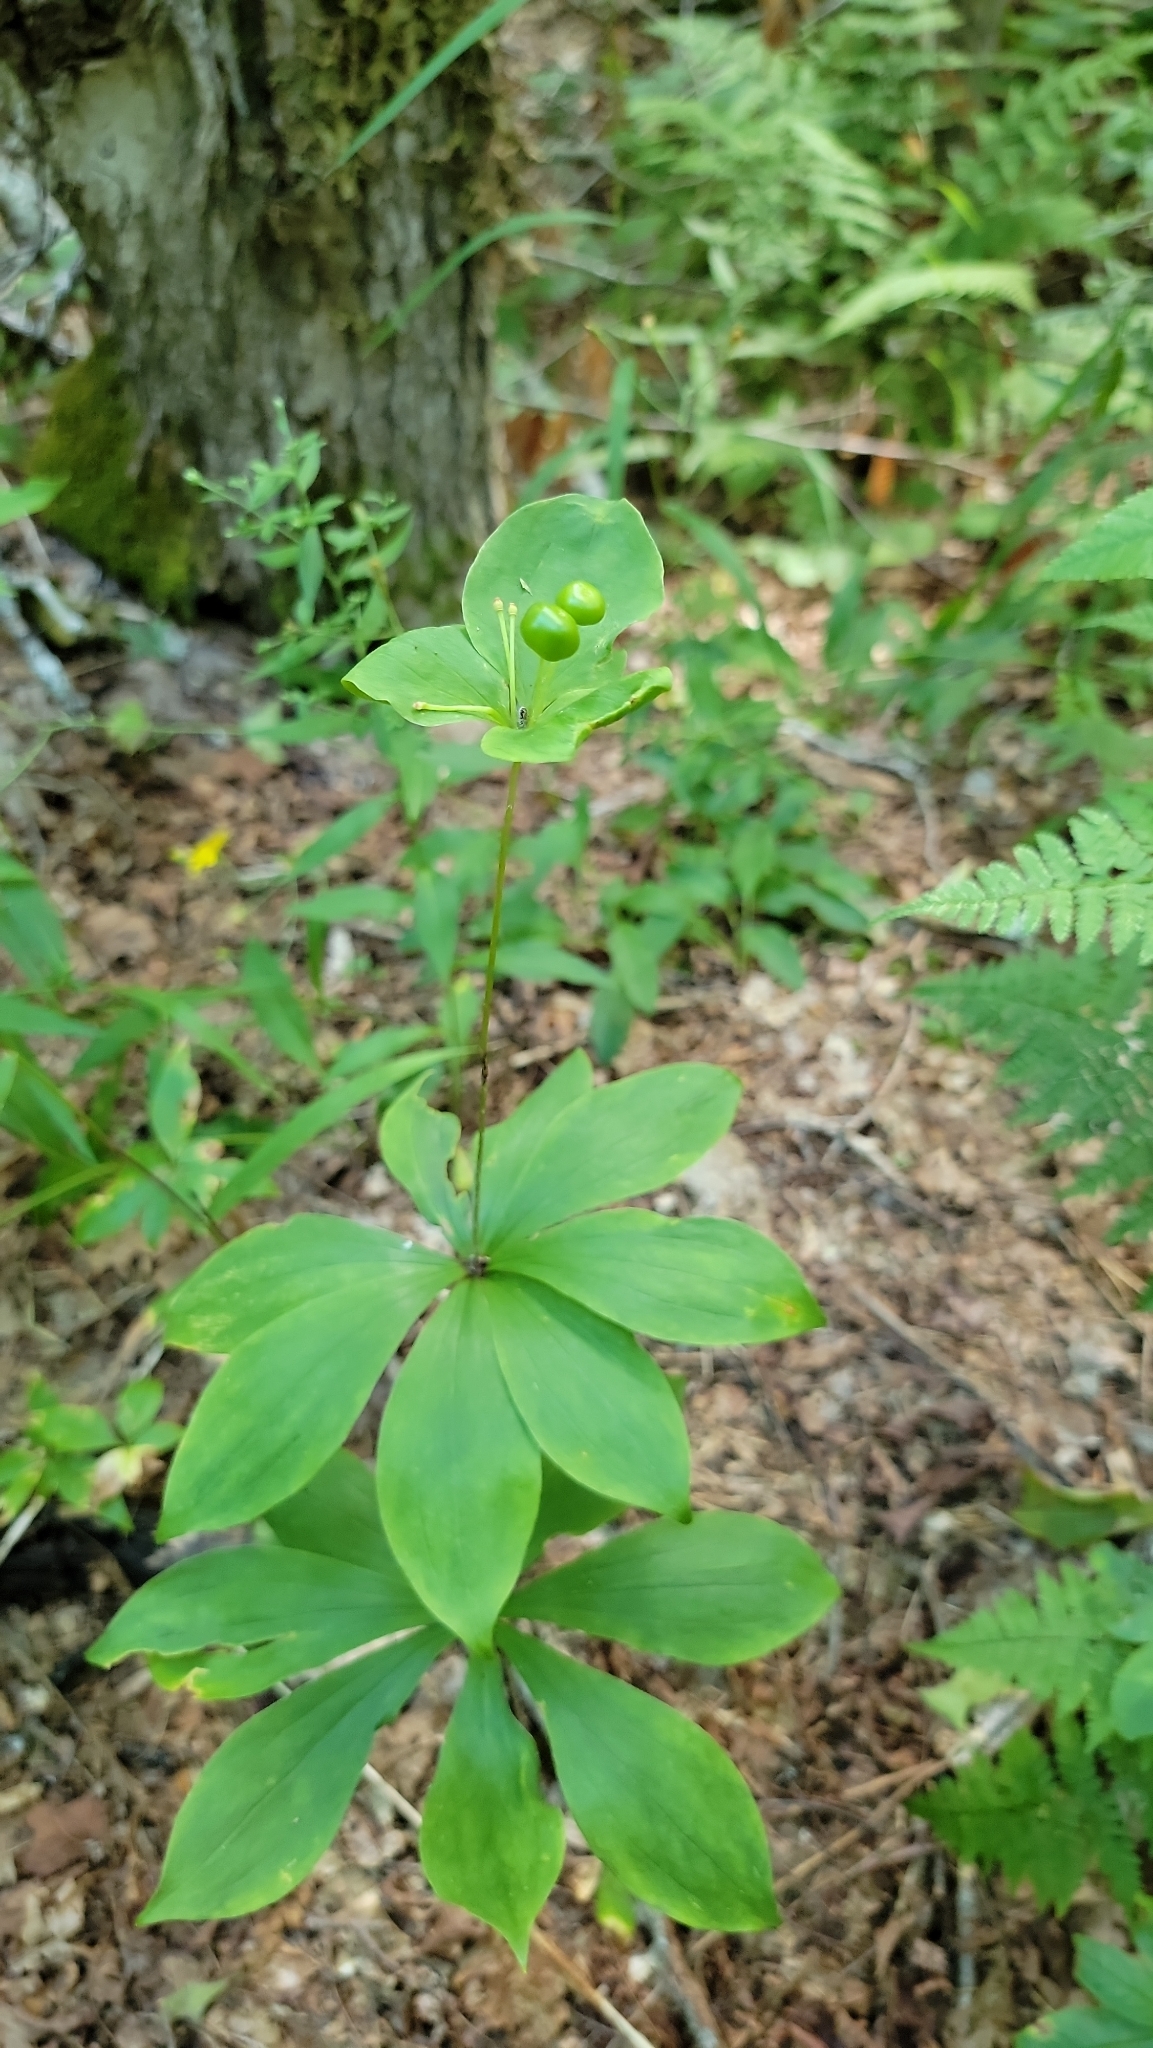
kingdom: Plantae
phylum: Tracheophyta
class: Liliopsida
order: Liliales
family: Liliaceae
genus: Medeola
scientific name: Medeola virginiana
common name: Indian cucumber-root
